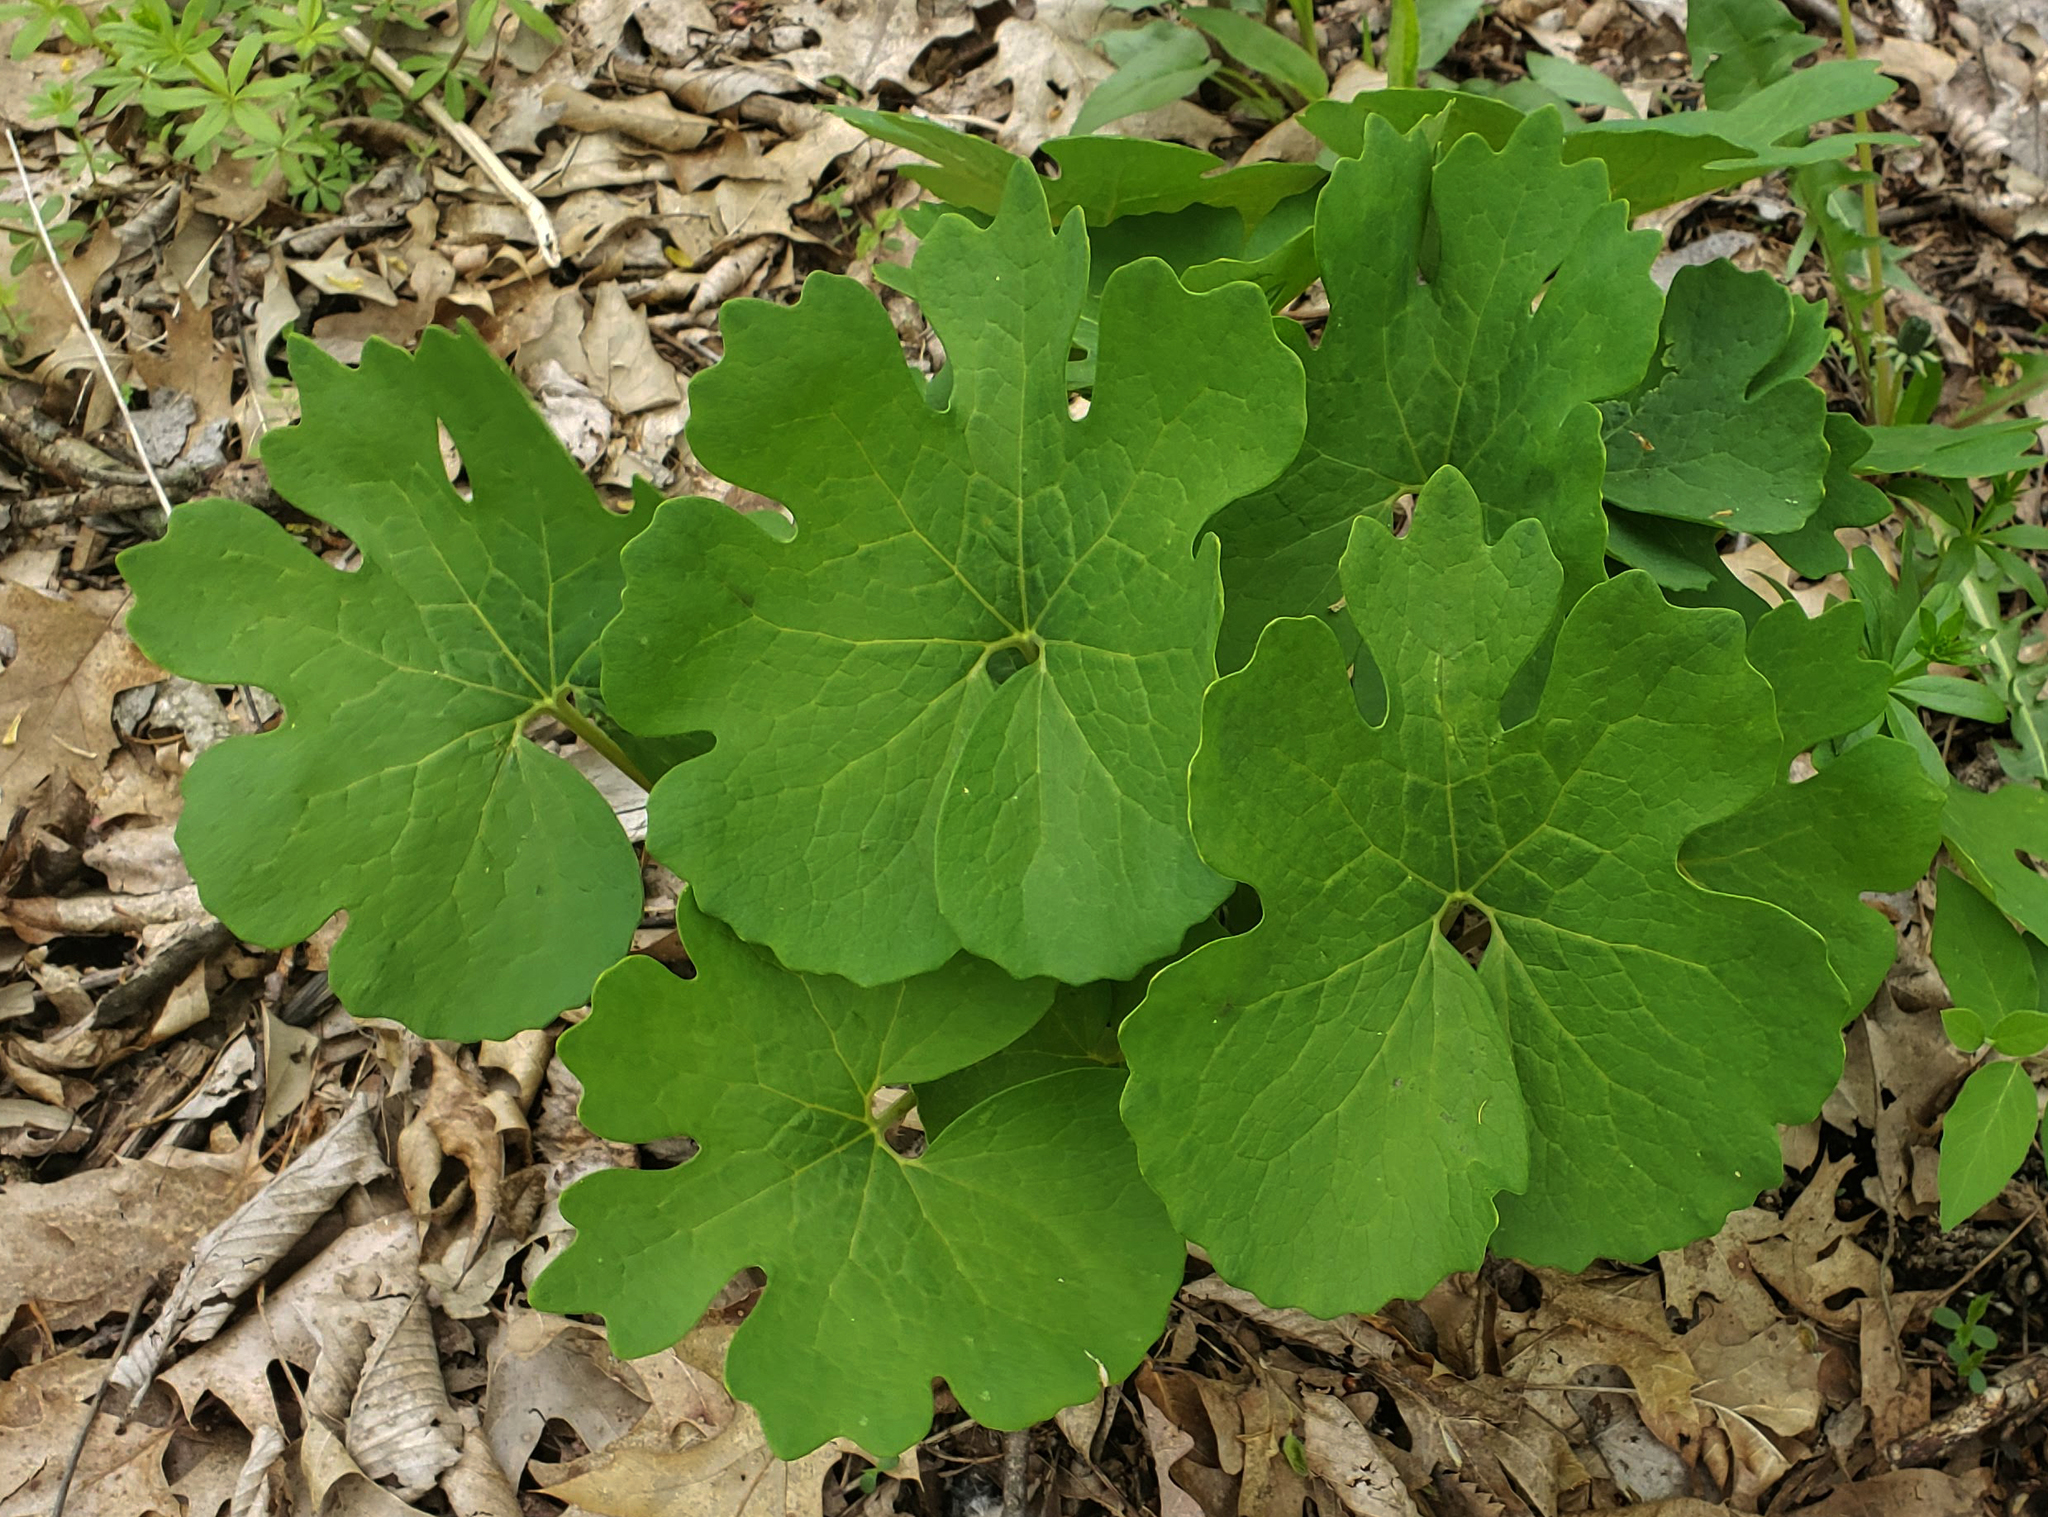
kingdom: Plantae
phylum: Tracheophyta
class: Magnoliopsida
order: Ranunculales
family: Papaveraceae
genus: Sanguinaria
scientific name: Sanguinaria canadensis
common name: Bloodroot
